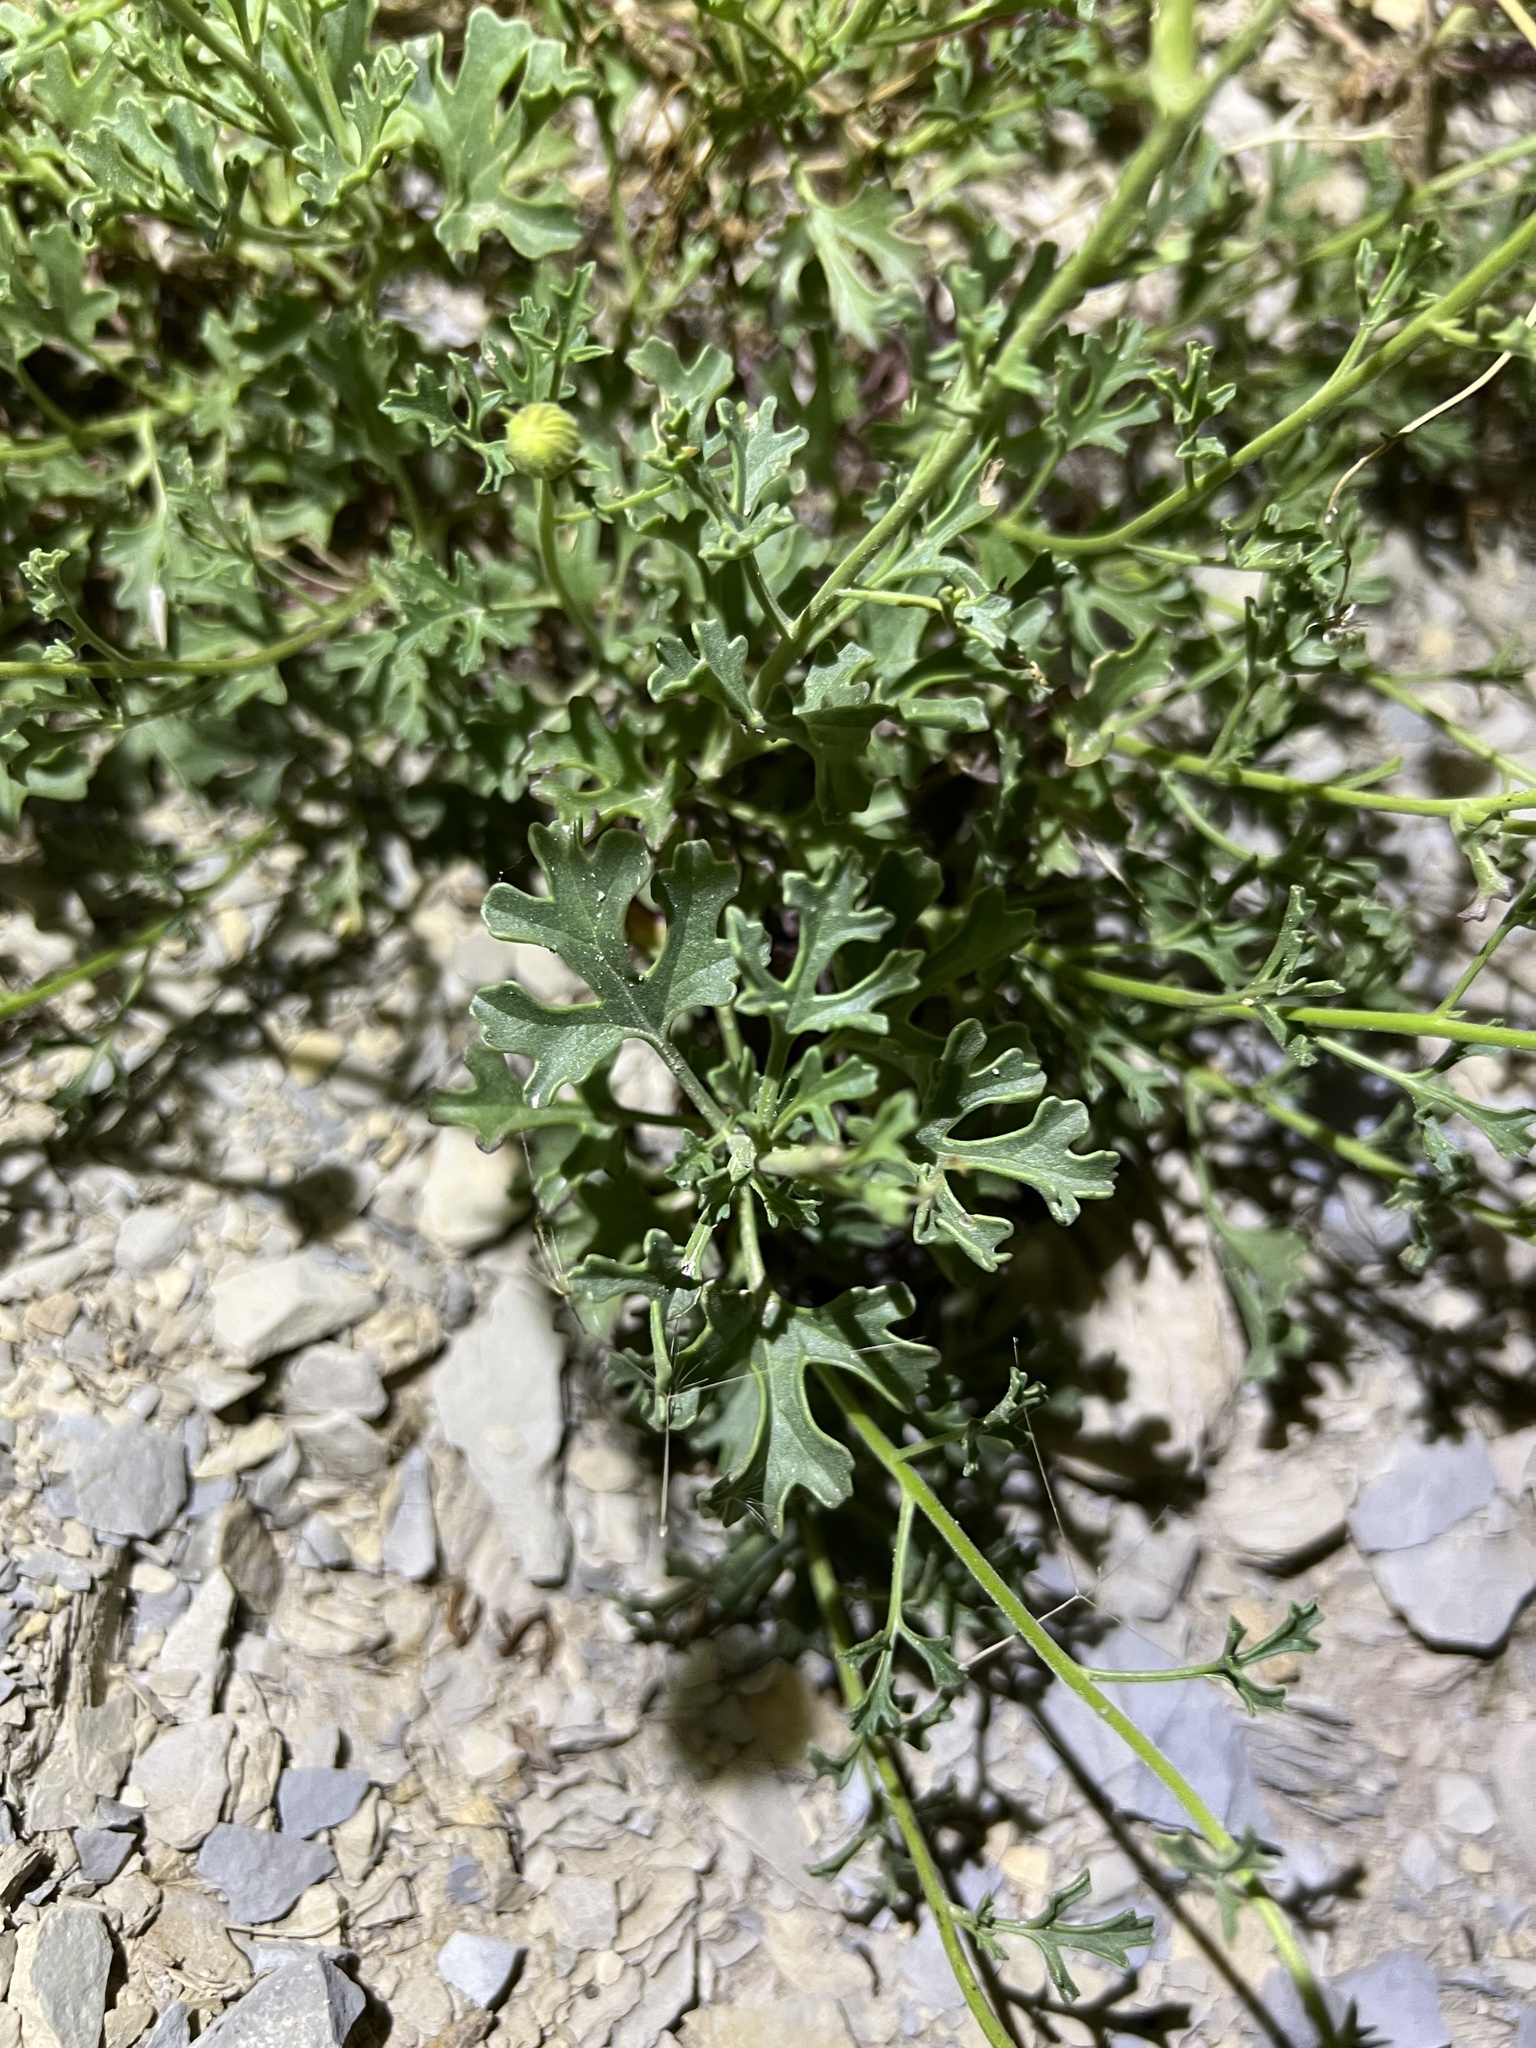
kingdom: Plantae
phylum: Tracheophyta
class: Magnoliopsida
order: Asterales
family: Asteraceae
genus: Laphamia
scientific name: Laphamia vaseyi
